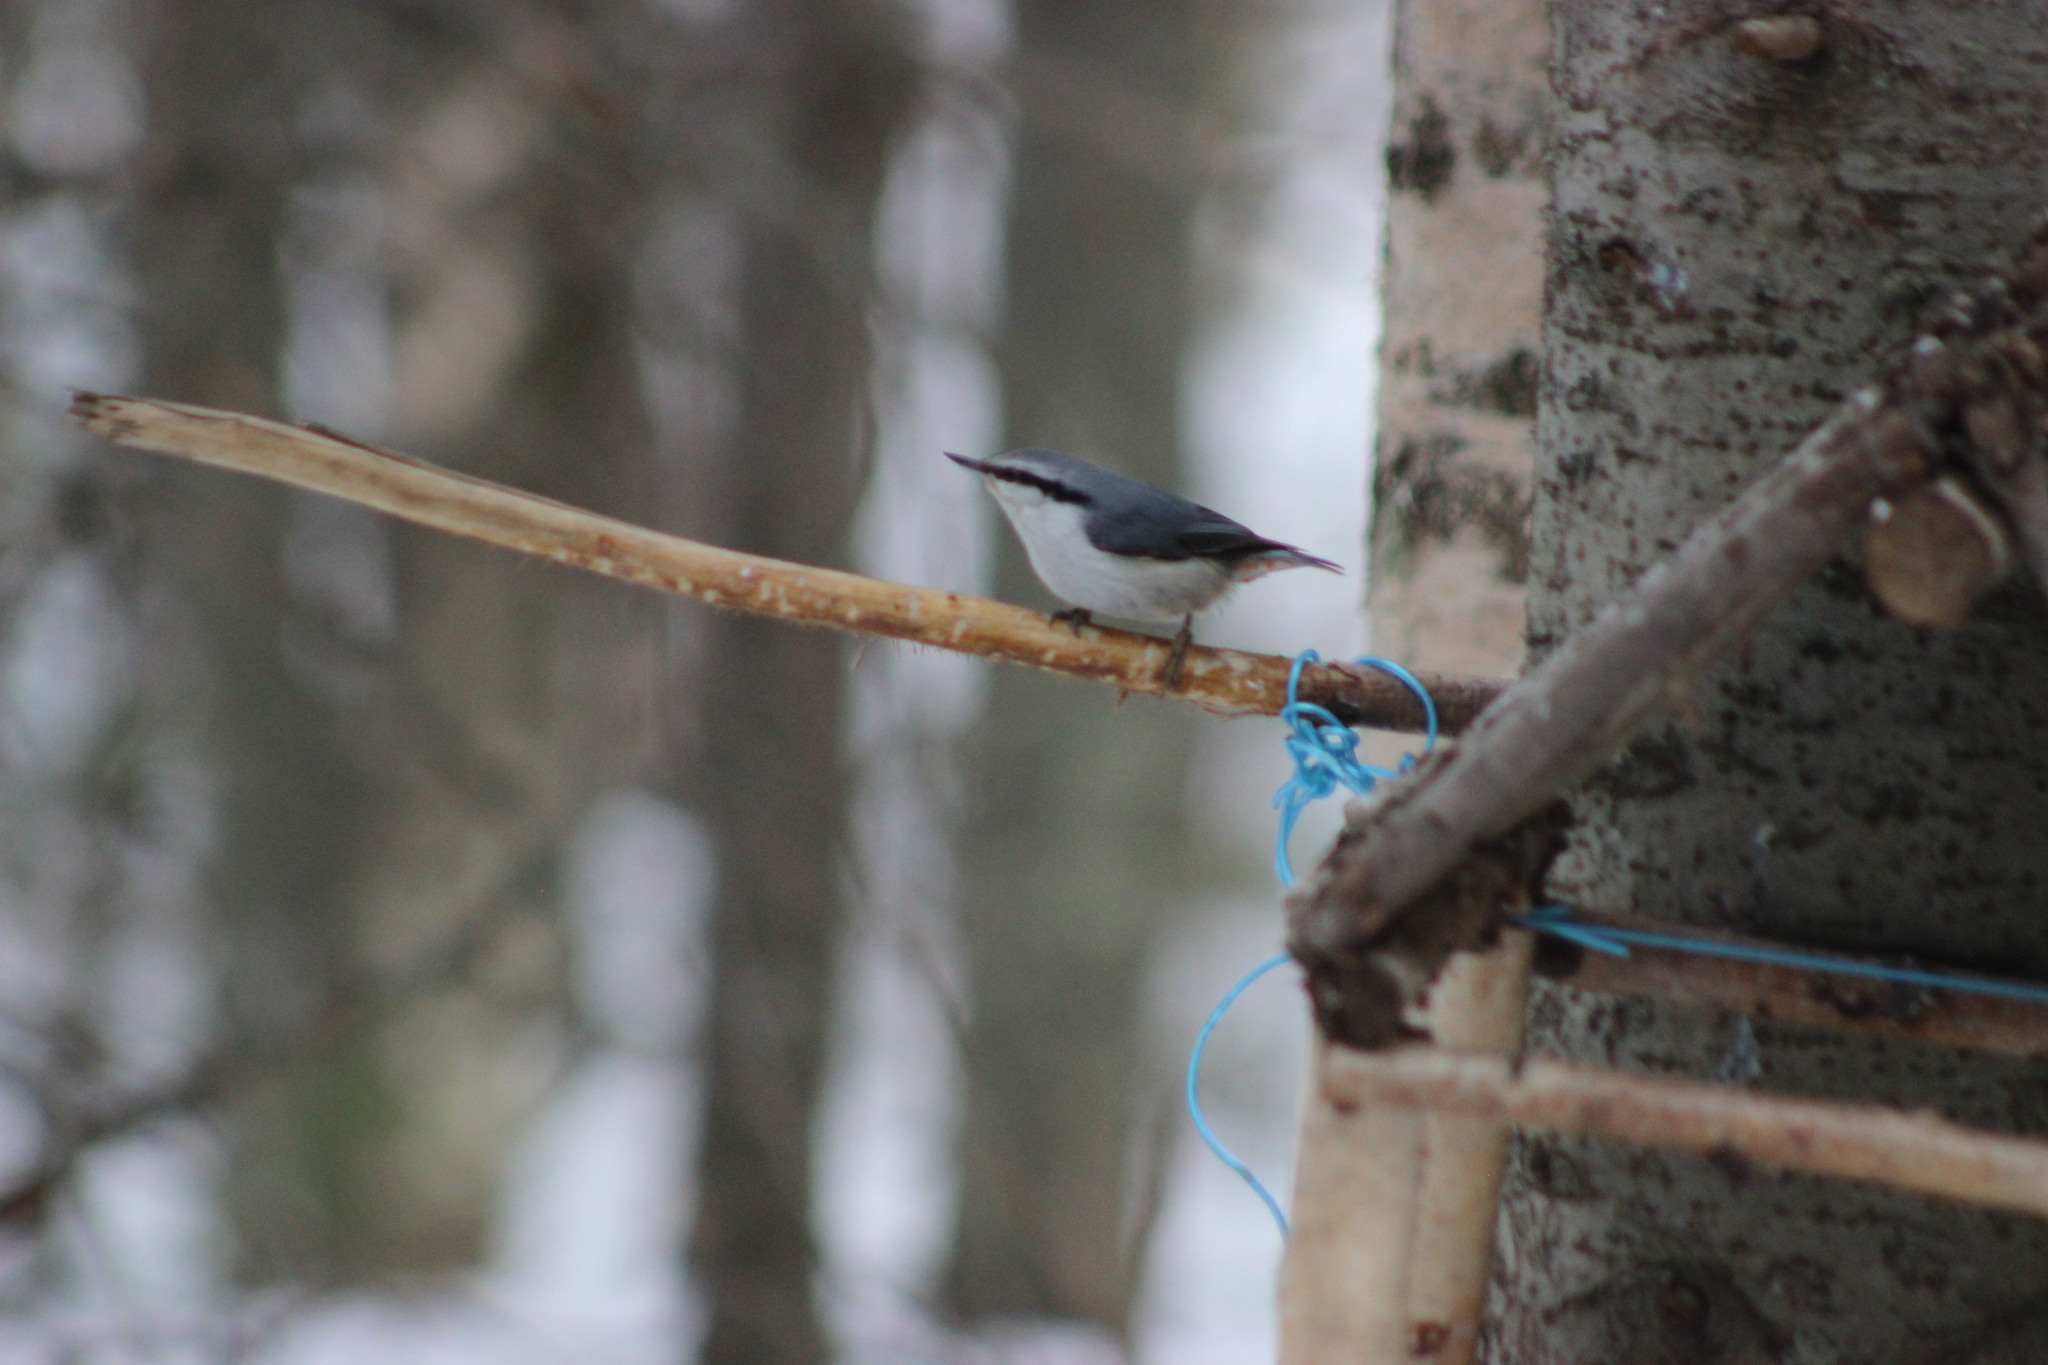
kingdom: Animalia
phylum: Chordata
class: Aves
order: Passeriformes
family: Sittidae
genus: Sitta
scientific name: Sitta europaea
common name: Eurasian nuthatch
